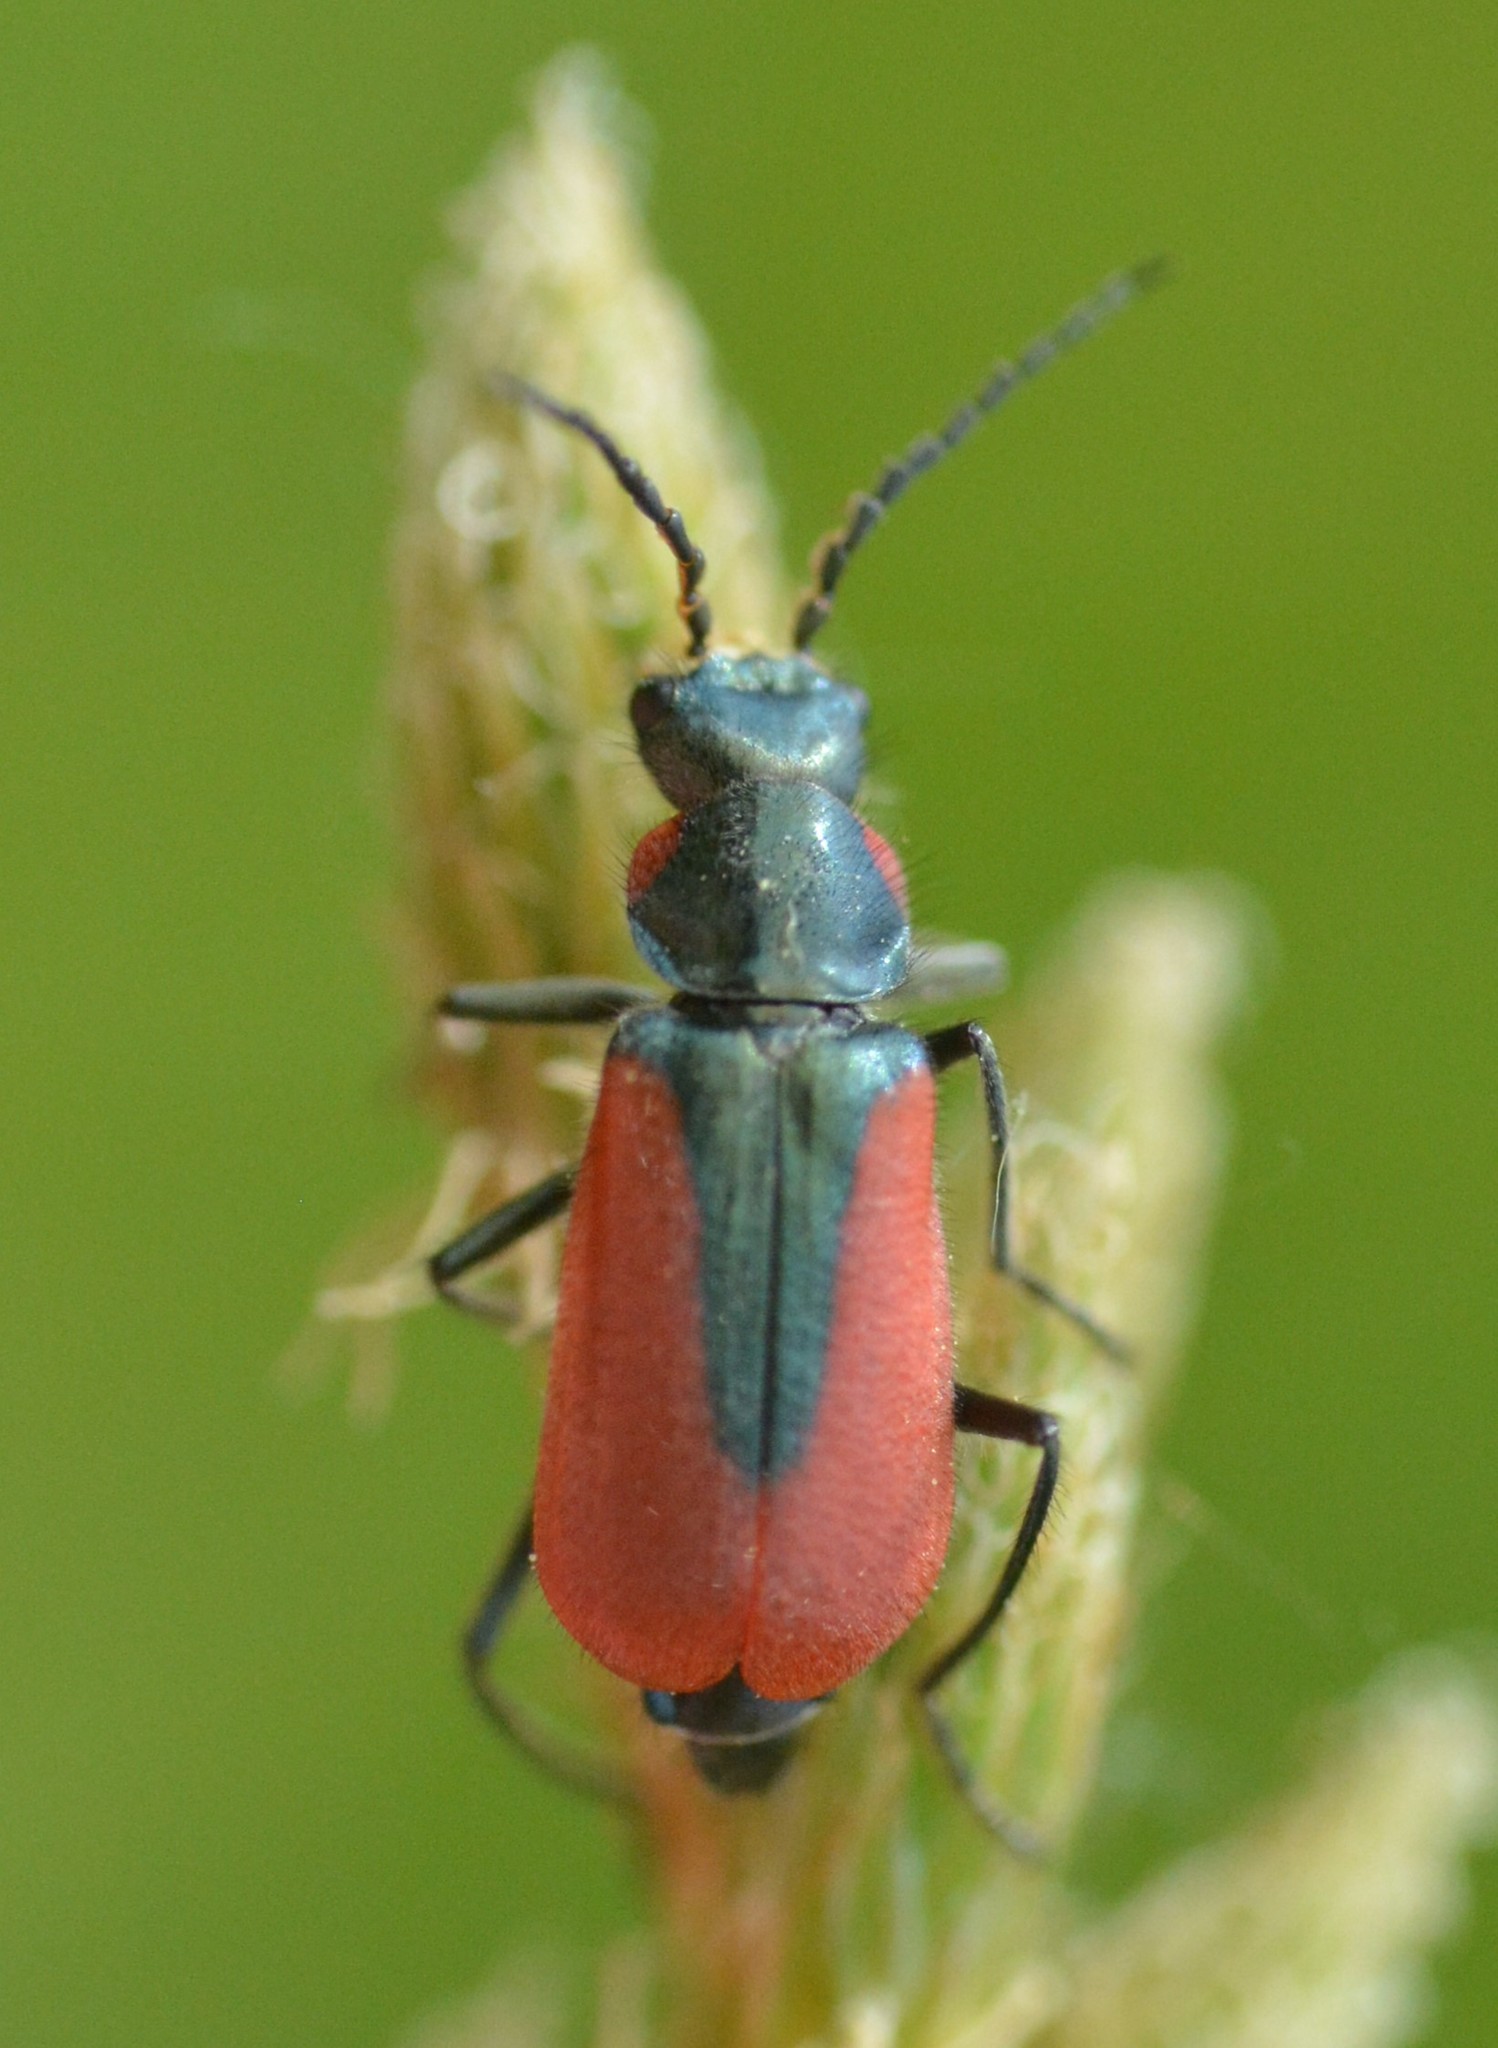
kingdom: Animalia
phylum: Arthropoda
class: Insecta
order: Coleoptera
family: Melyridae
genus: Malachius
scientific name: Malachius aeneus
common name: Scarlet malachite beetle
